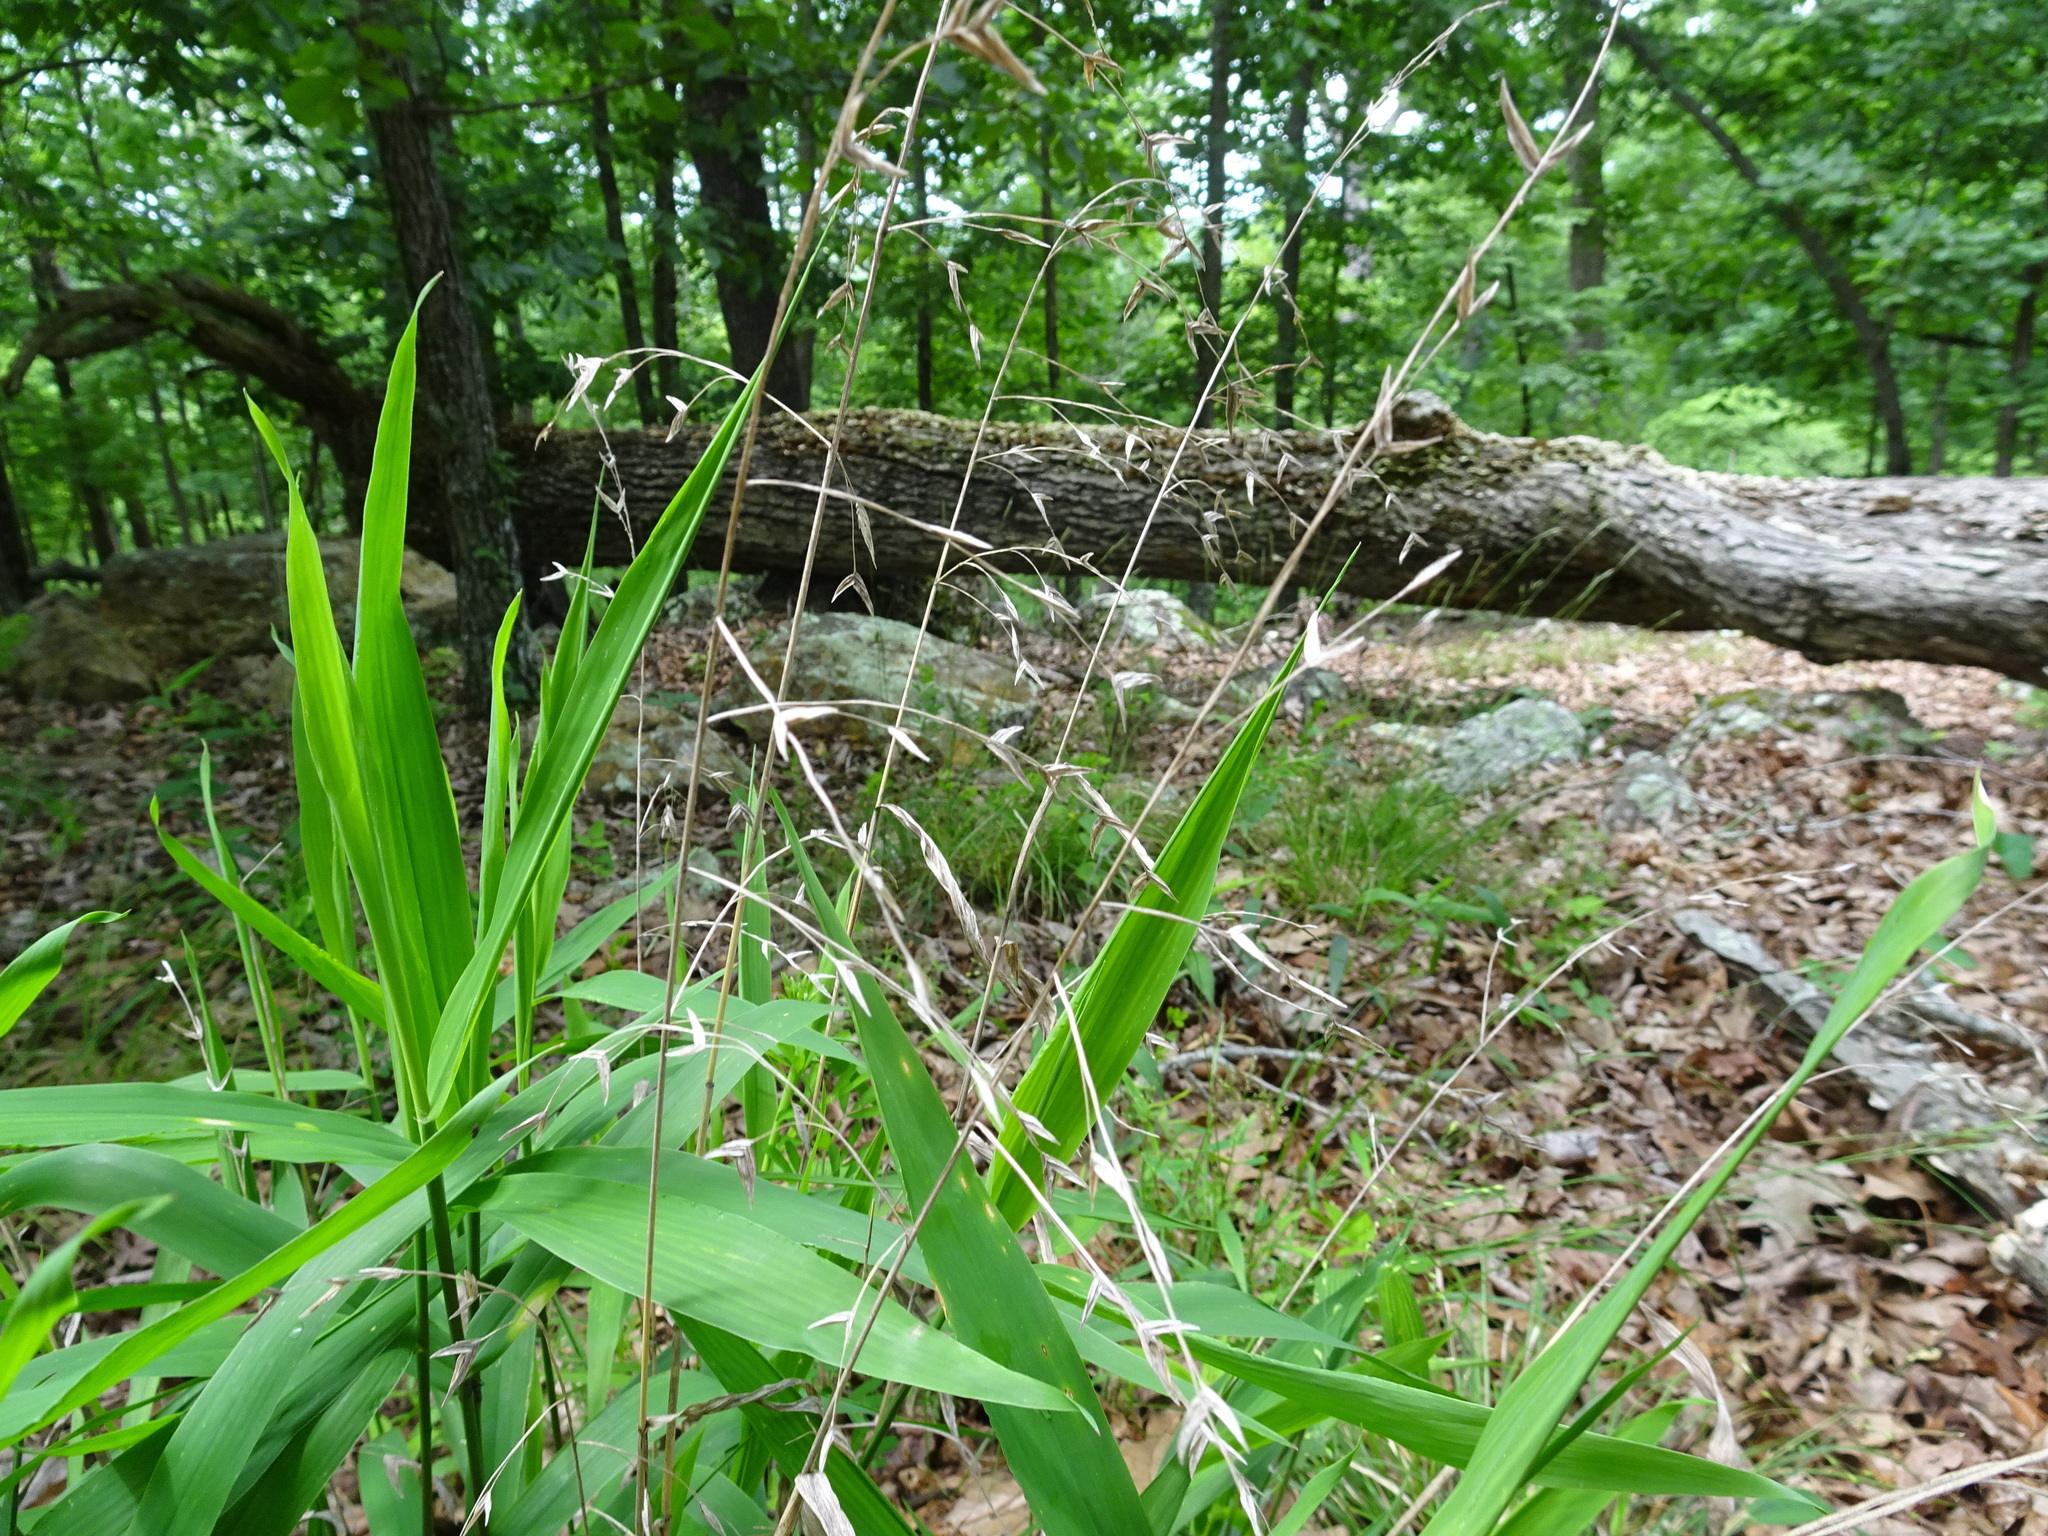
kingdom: Plantae
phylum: Tracheophyta
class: Liliopsida
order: Poales
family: Poaceae
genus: Chasmanthium
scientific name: Chasmanthium latifolium
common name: Broad-leaved chasmanthium
